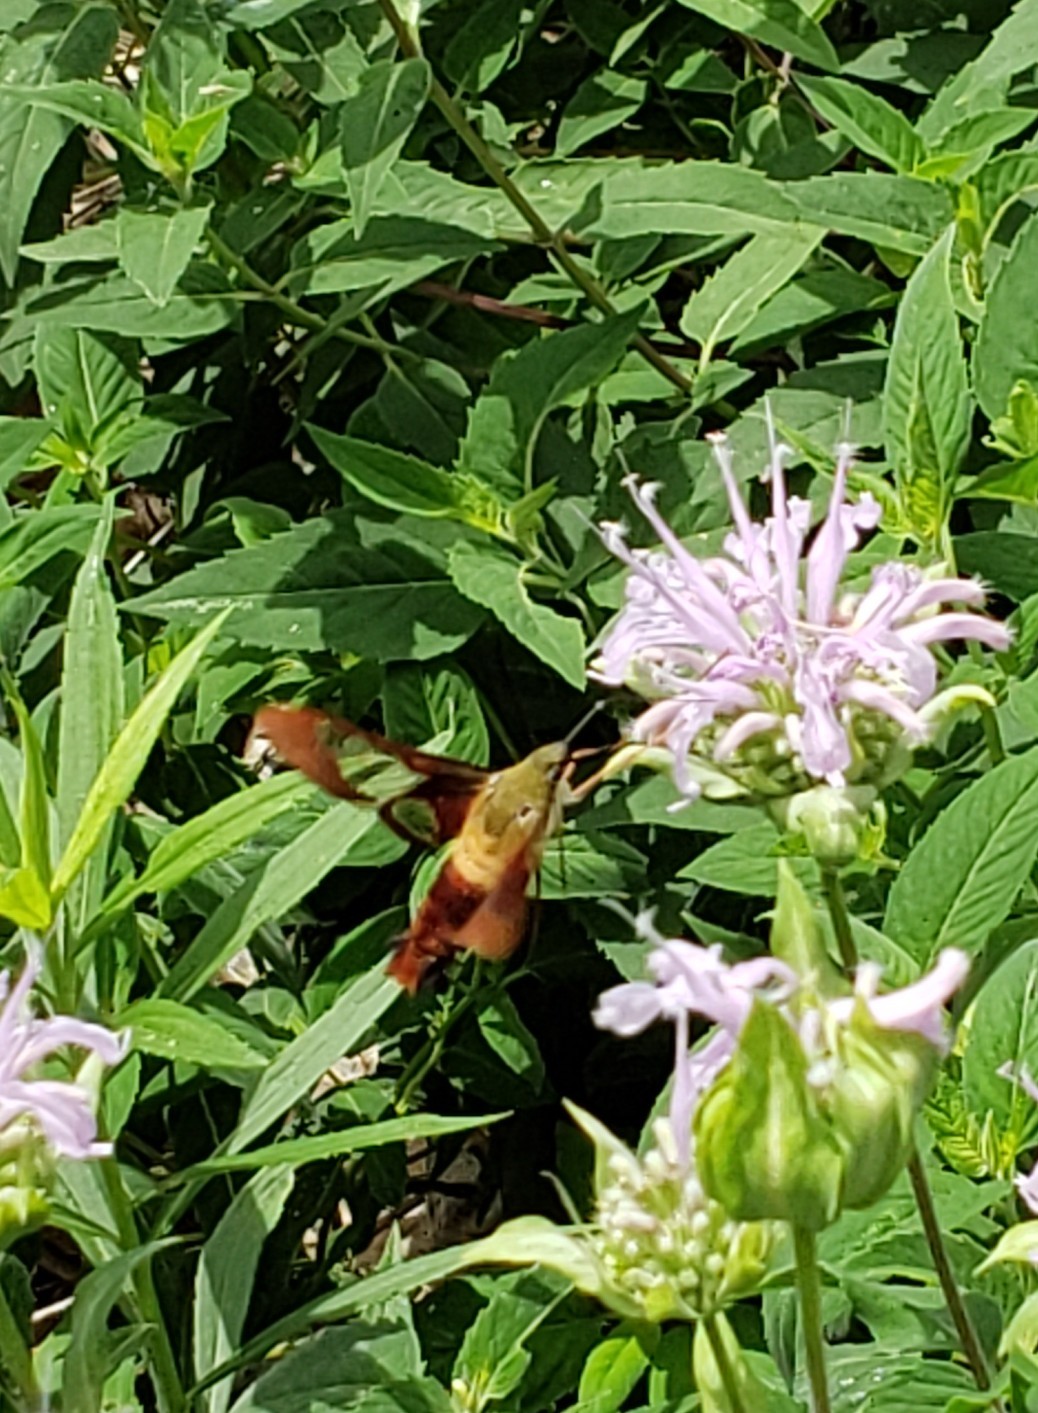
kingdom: Animalia
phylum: Arthropoda
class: Insecta
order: Lepidoptera
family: Sphingidae
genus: Hemaris
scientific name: Hemaris thysbe
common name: Common clear-wing
